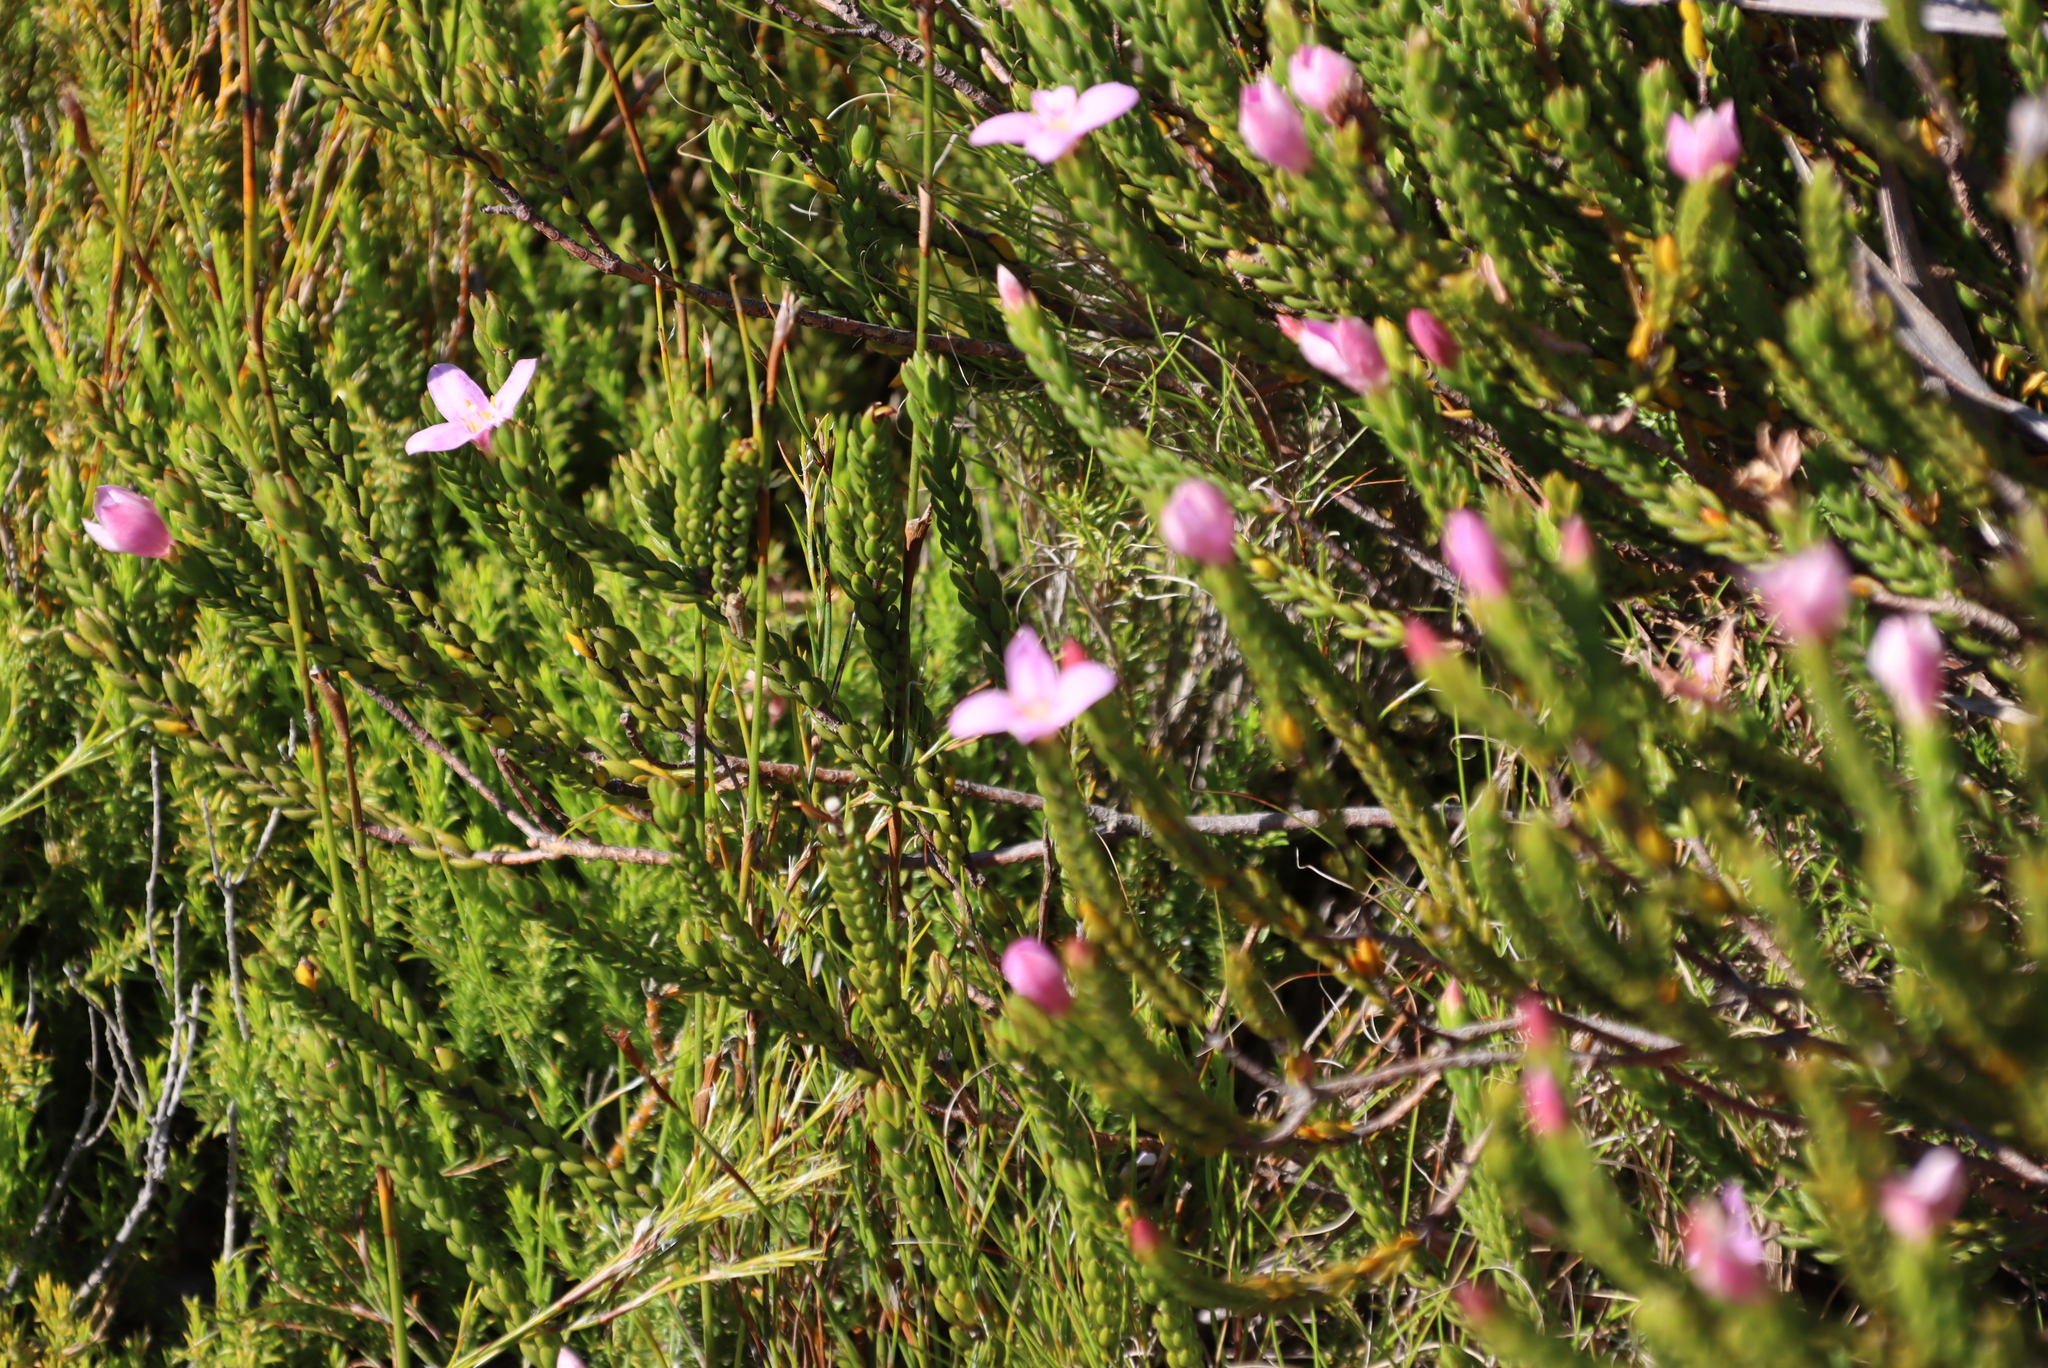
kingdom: Plantae
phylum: Tracheophyta
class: Magnoliopsida
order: Malvales
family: Thymelaeaceae
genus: Lachnaea
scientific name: Lachnaea grandiflora
